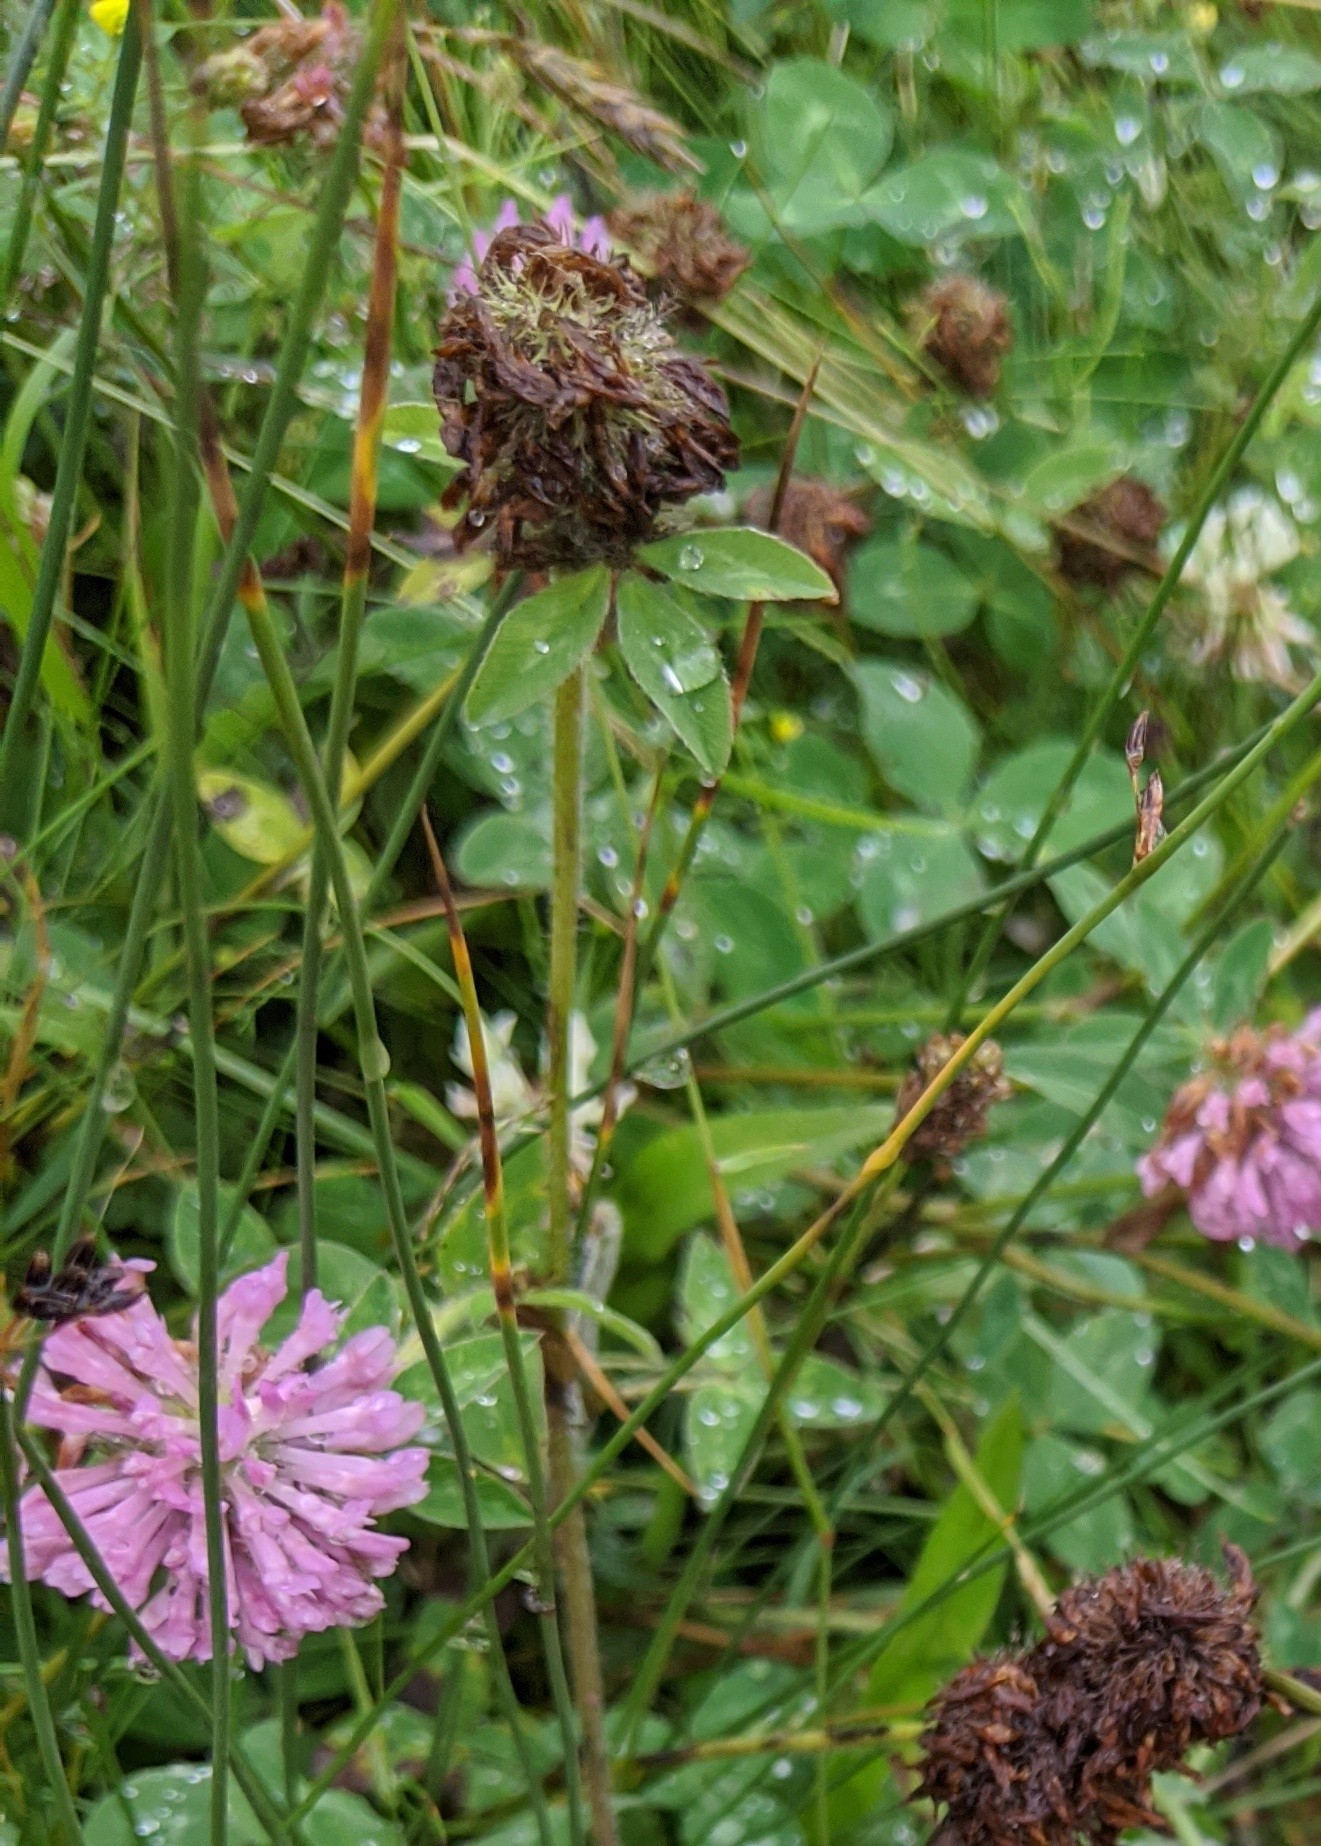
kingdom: Plantae
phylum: Tracheophyta
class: Magnoliopsida
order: Fabales
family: Fabaceae
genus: Trifolium
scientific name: Trifolium pratense
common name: Red clover
